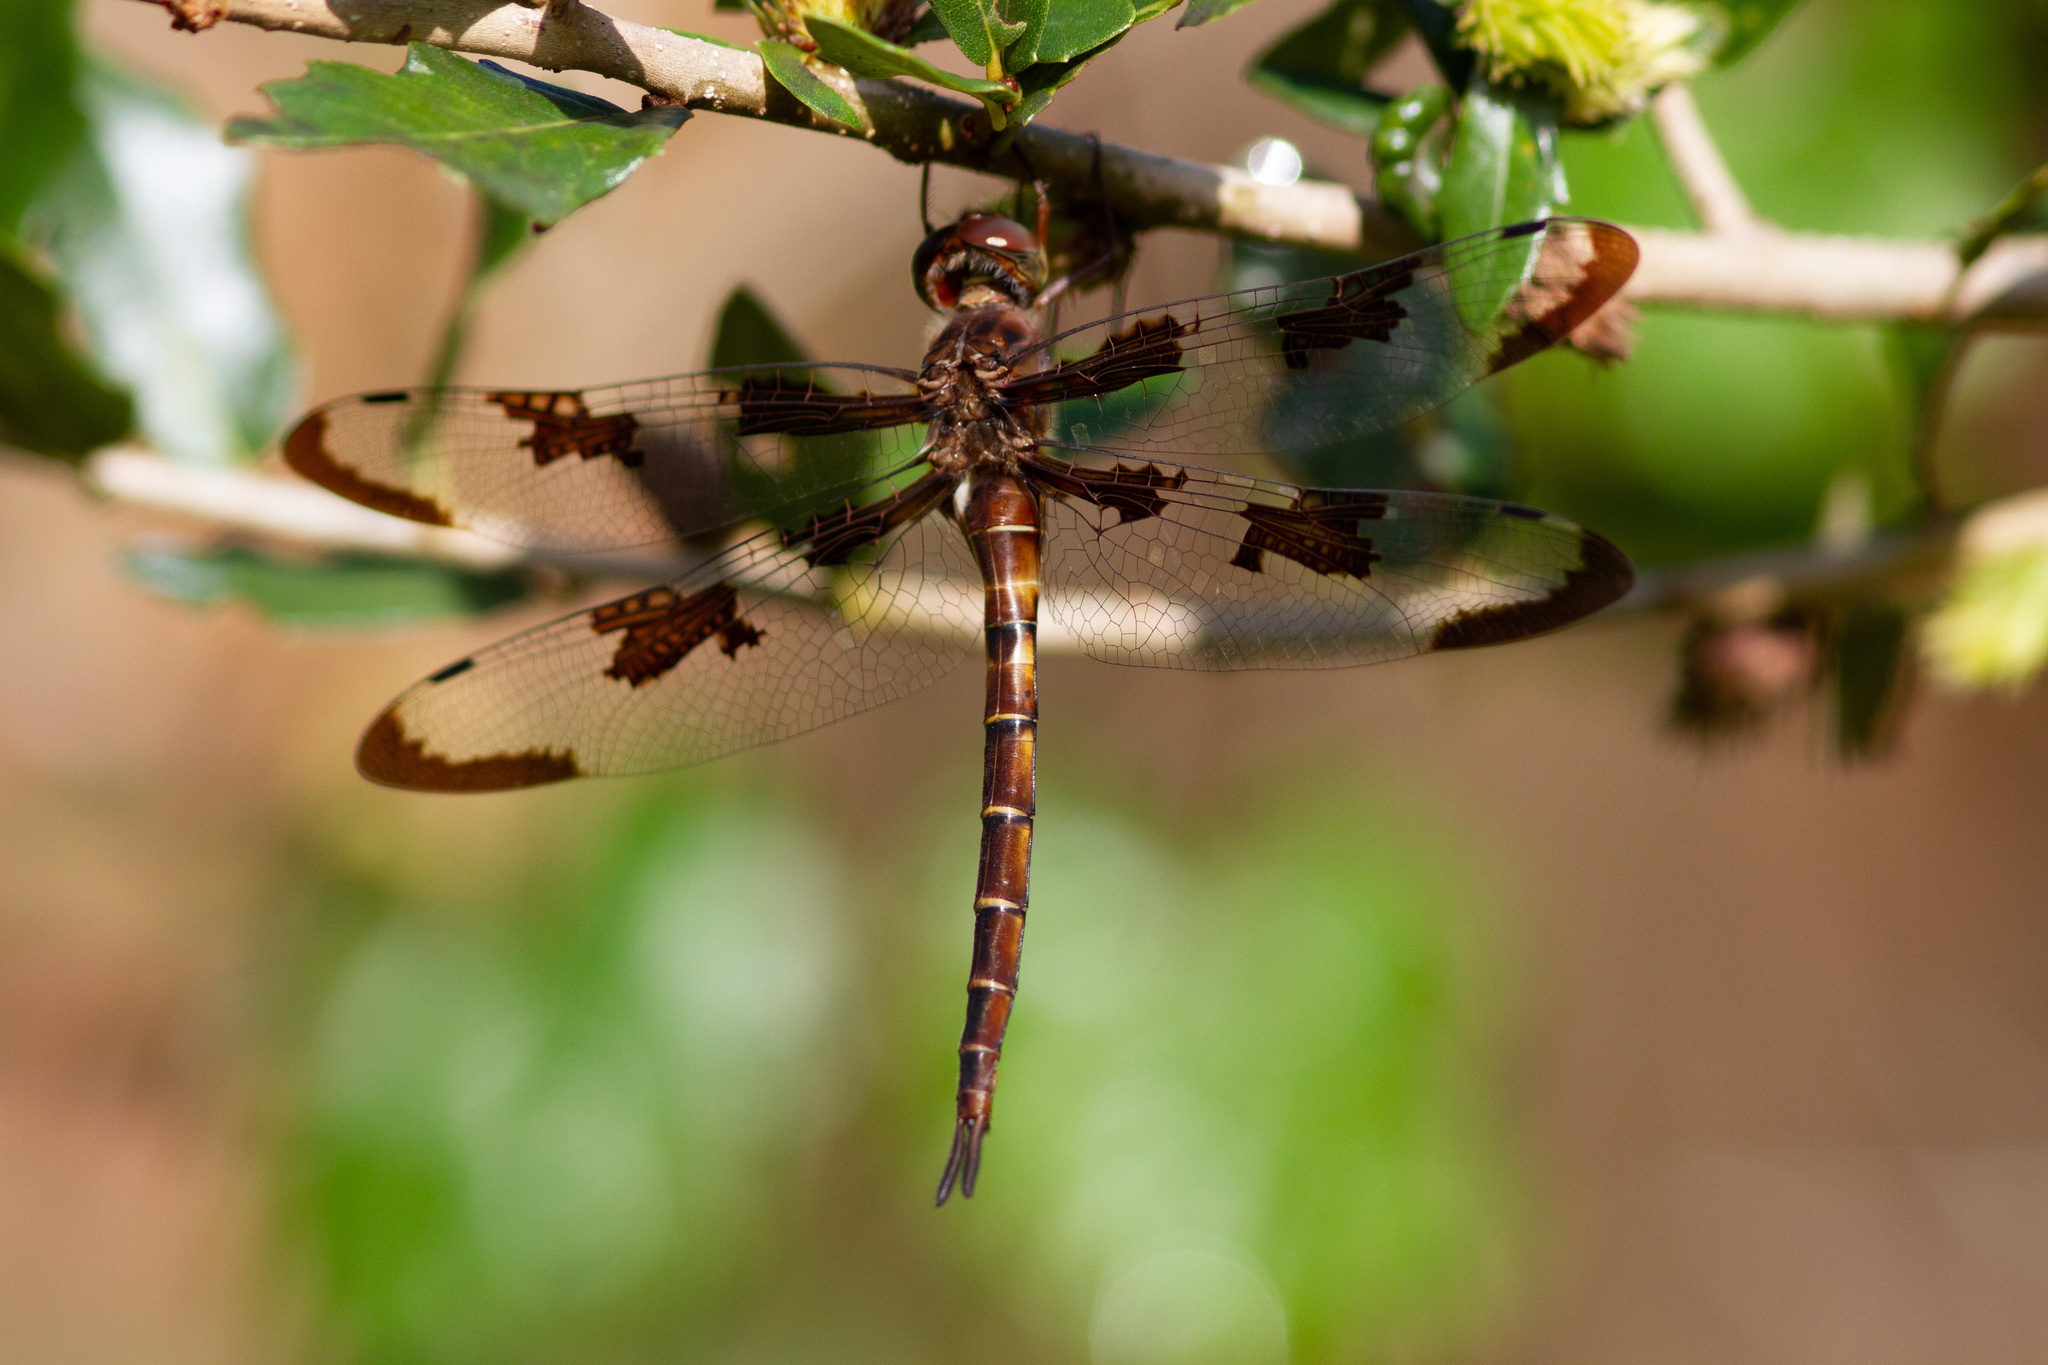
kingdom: Animalia
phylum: Arthropoda
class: Insecta
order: Odonata
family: Corduliidae
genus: Epitheca
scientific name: Epitheca princeps
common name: Prince baskettail
